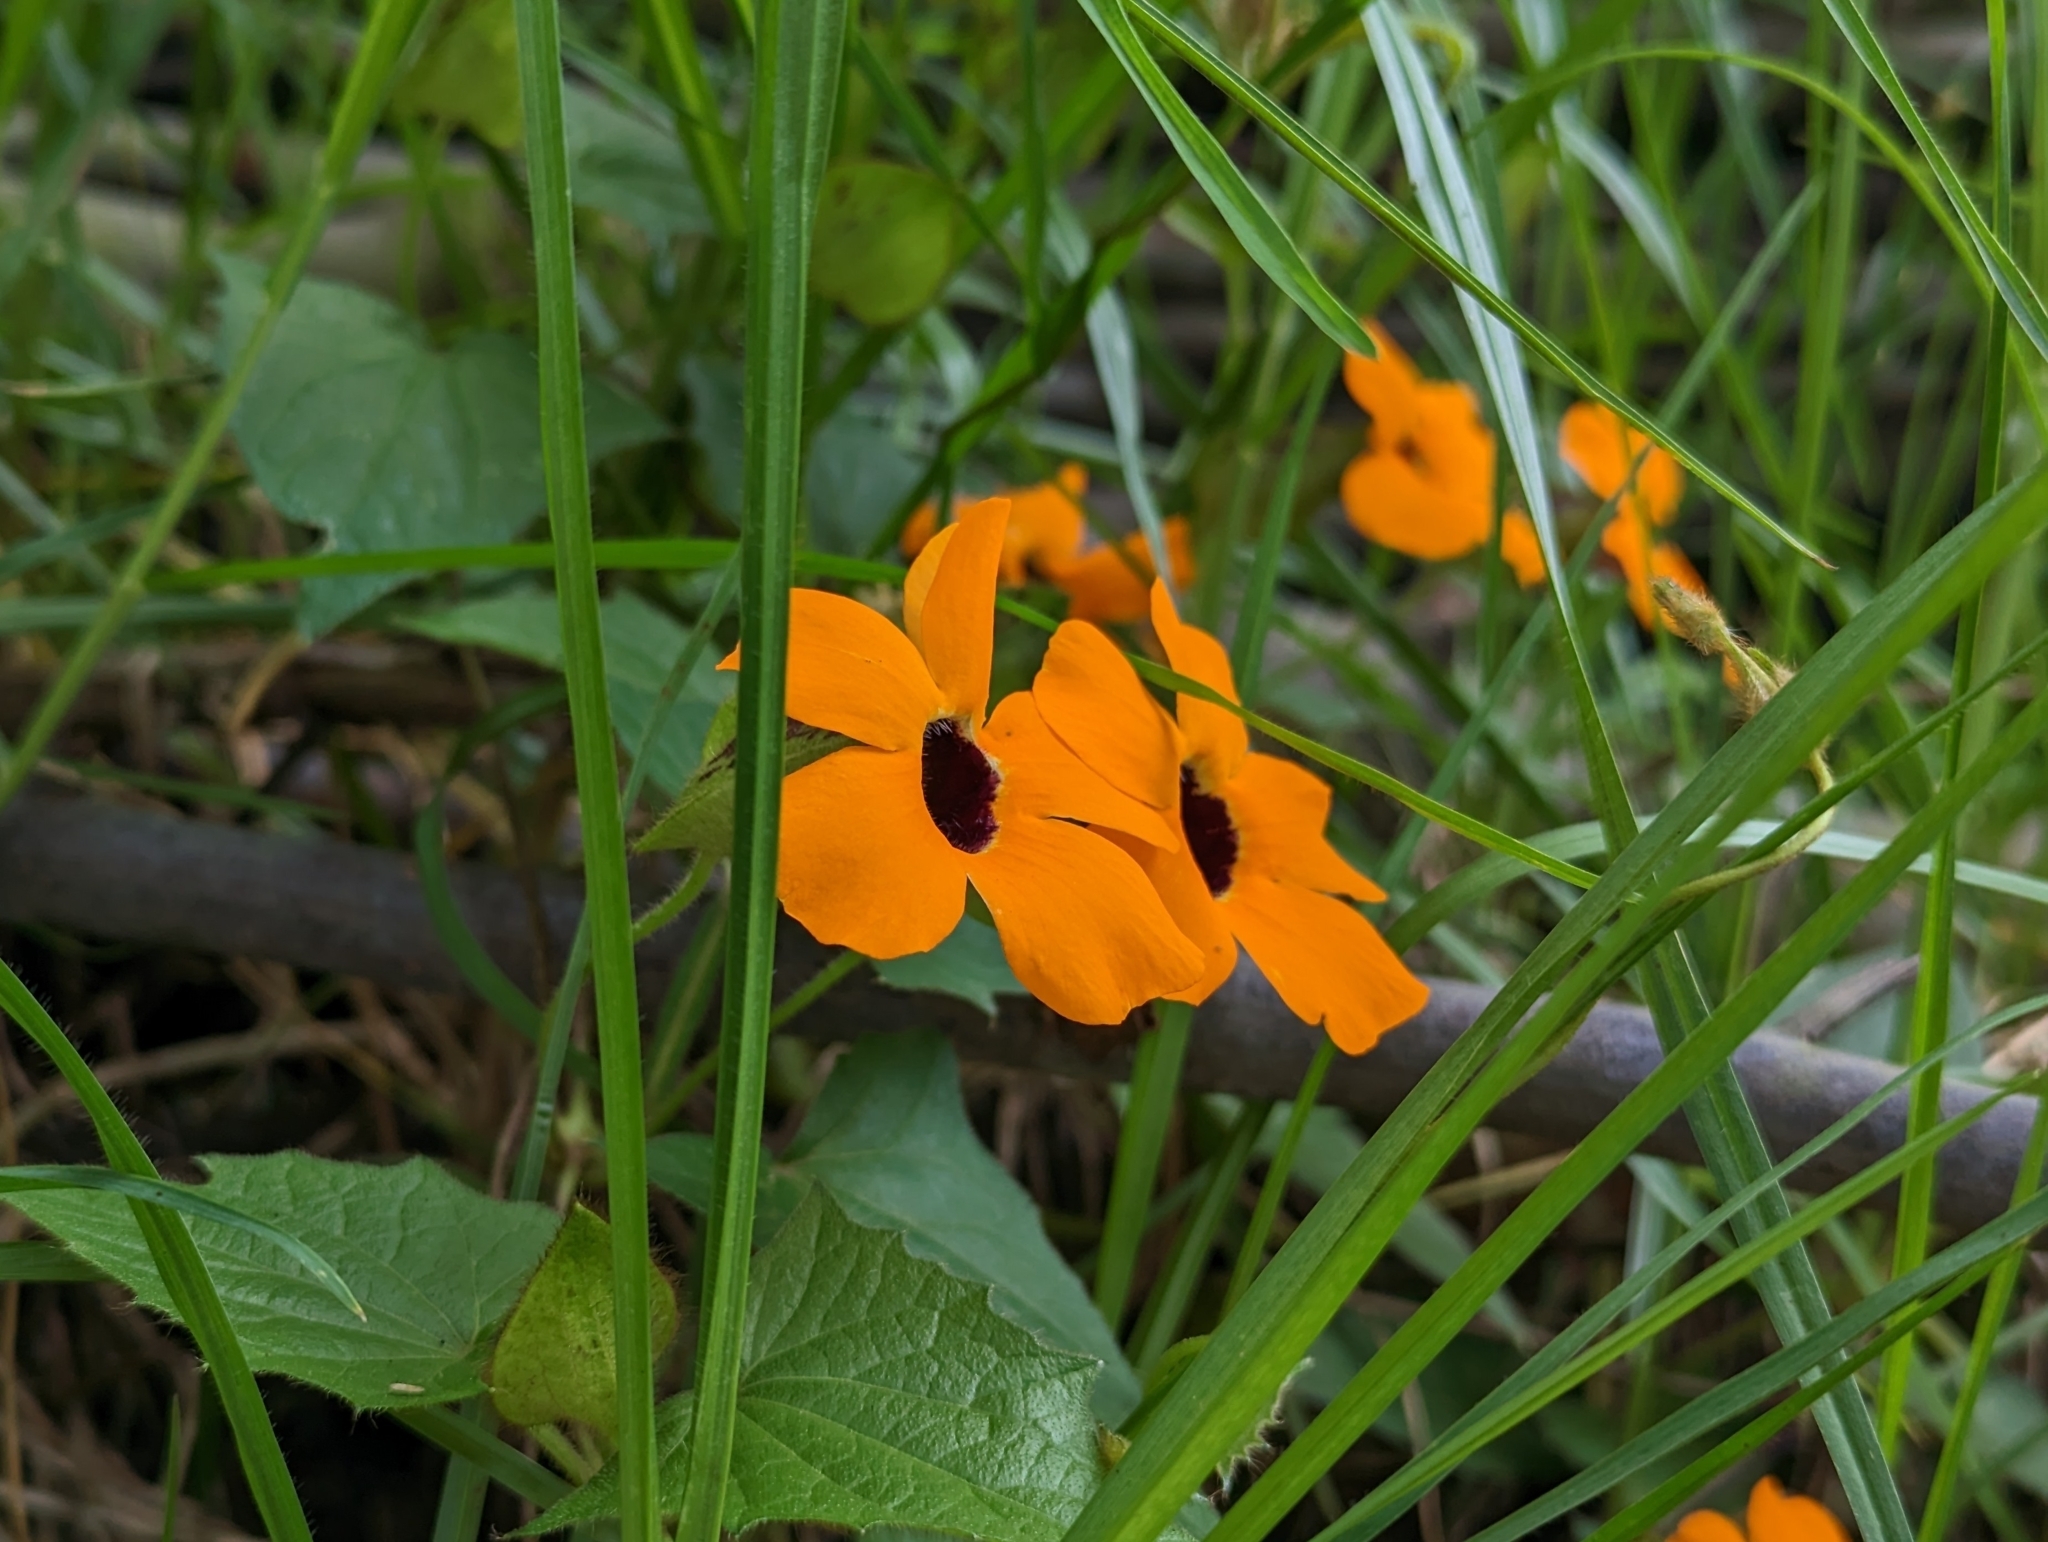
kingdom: Plantae
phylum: Tracheophyta
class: Magnoliopsida
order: Lamiales
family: Acanthaceae
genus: Thunbergia
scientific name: Thunbergia alata
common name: Blackeyed susan vine
